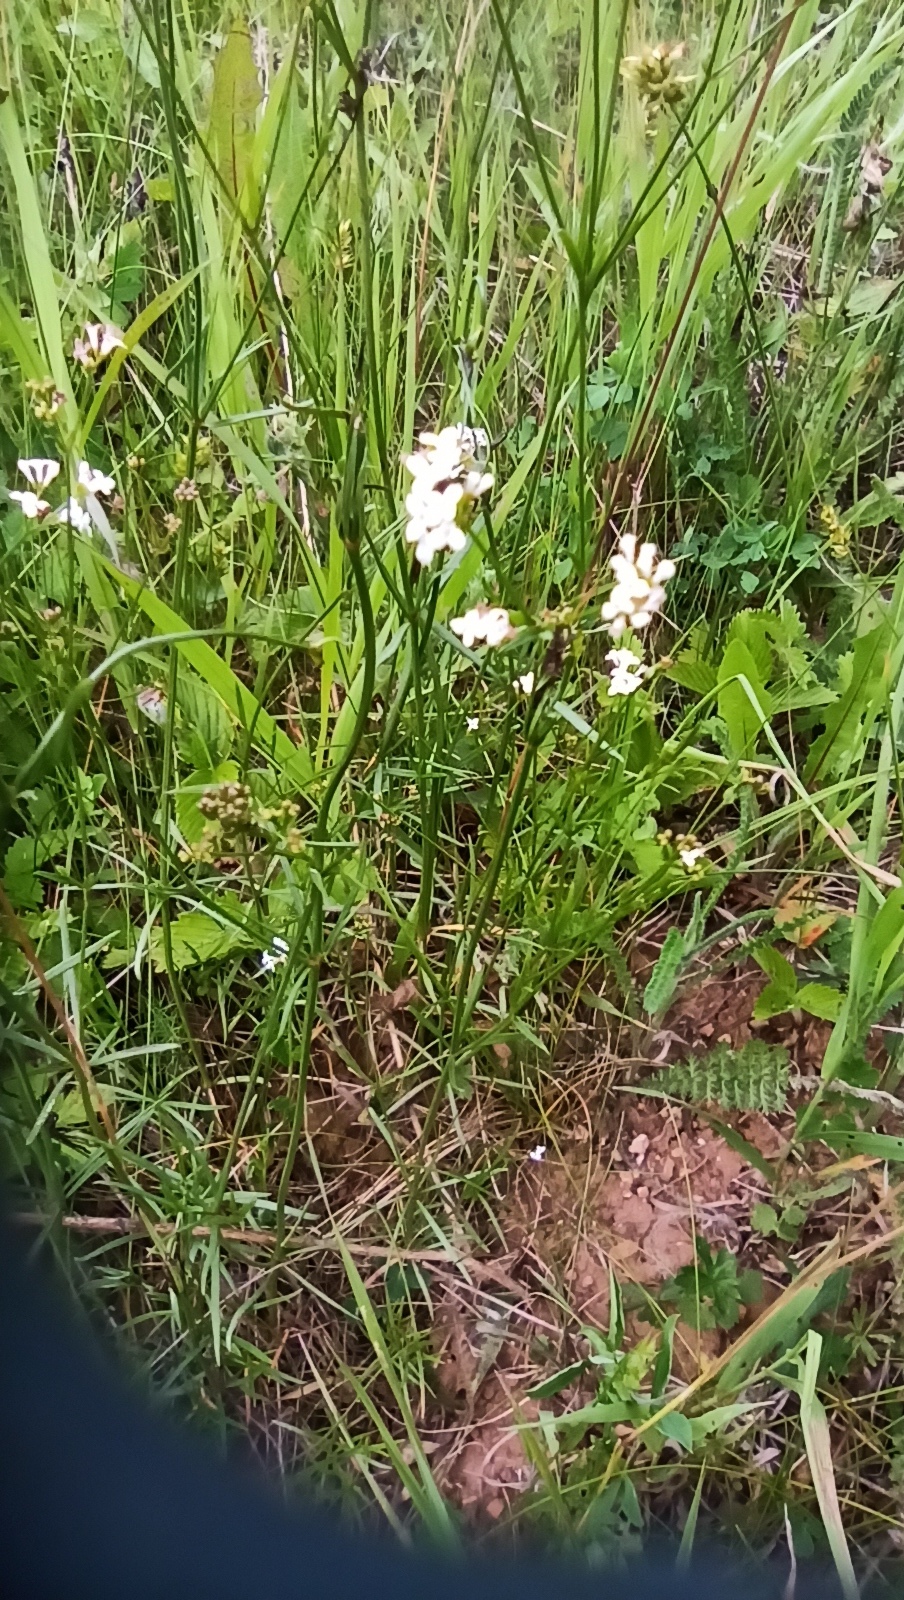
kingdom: Plantae
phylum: Tracheophyta
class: Magnoliopsida
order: Gentianales
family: Rubiaceae
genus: Asperula
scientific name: Asperula tinctoria
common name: Dyer's woodruff
